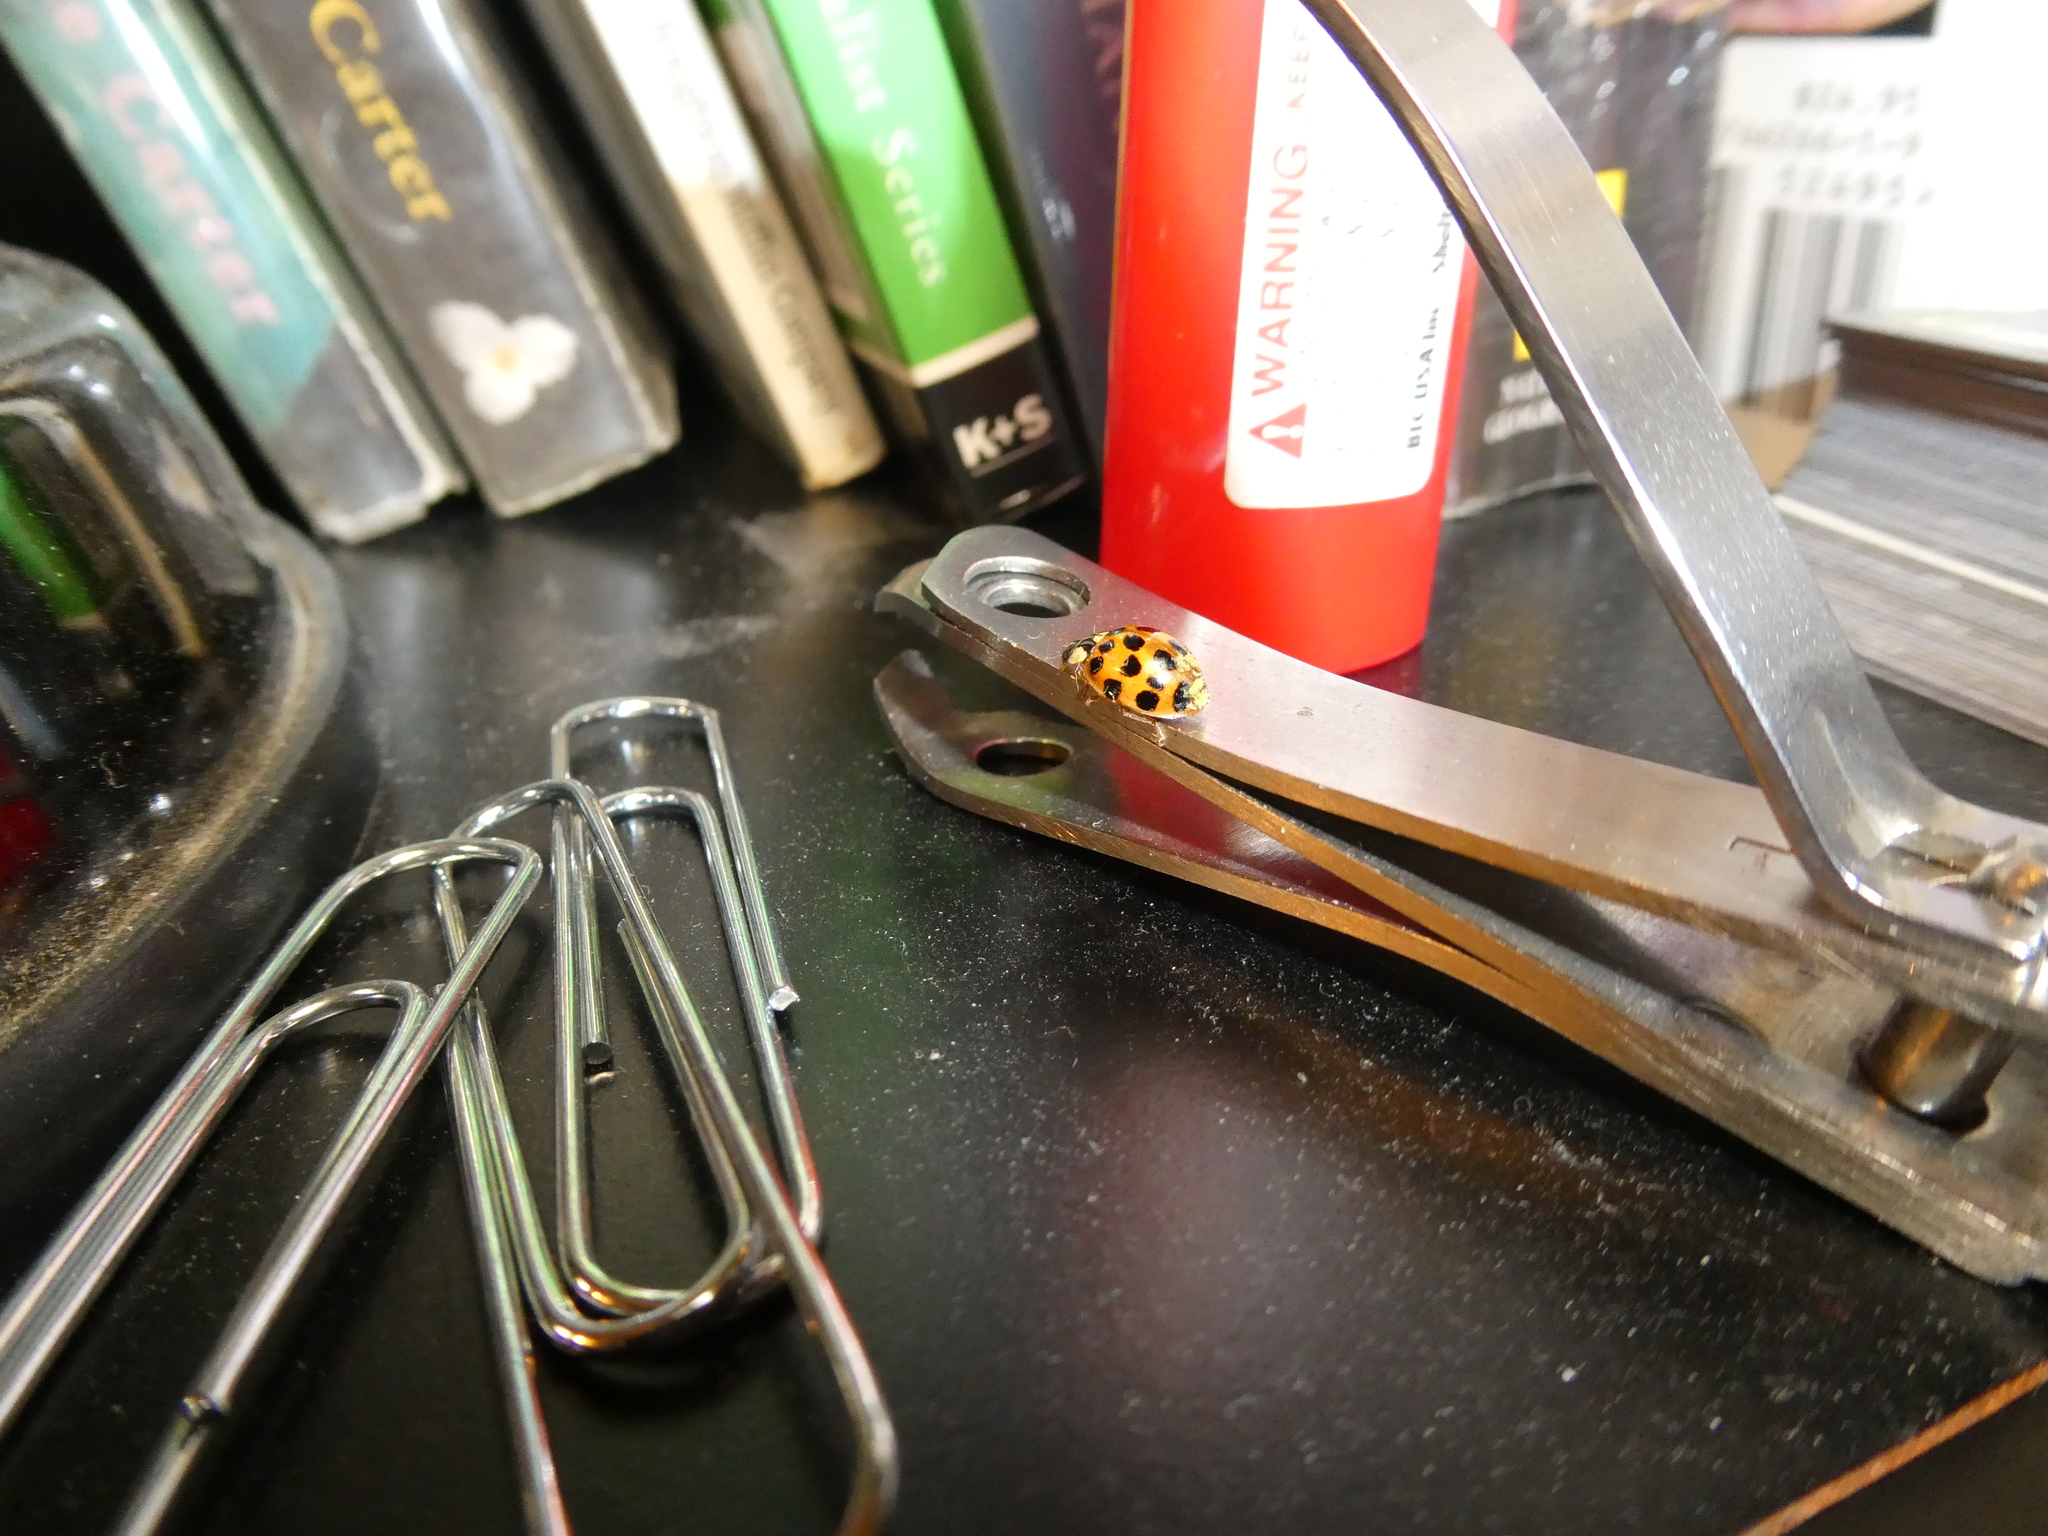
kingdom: Fungi
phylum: Ascomycota
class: Laboulbeniomycetes
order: Laboulbeniales
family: Laboulbeniaceae
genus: Hesperomyces
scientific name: Hesperomyces harmoniae
